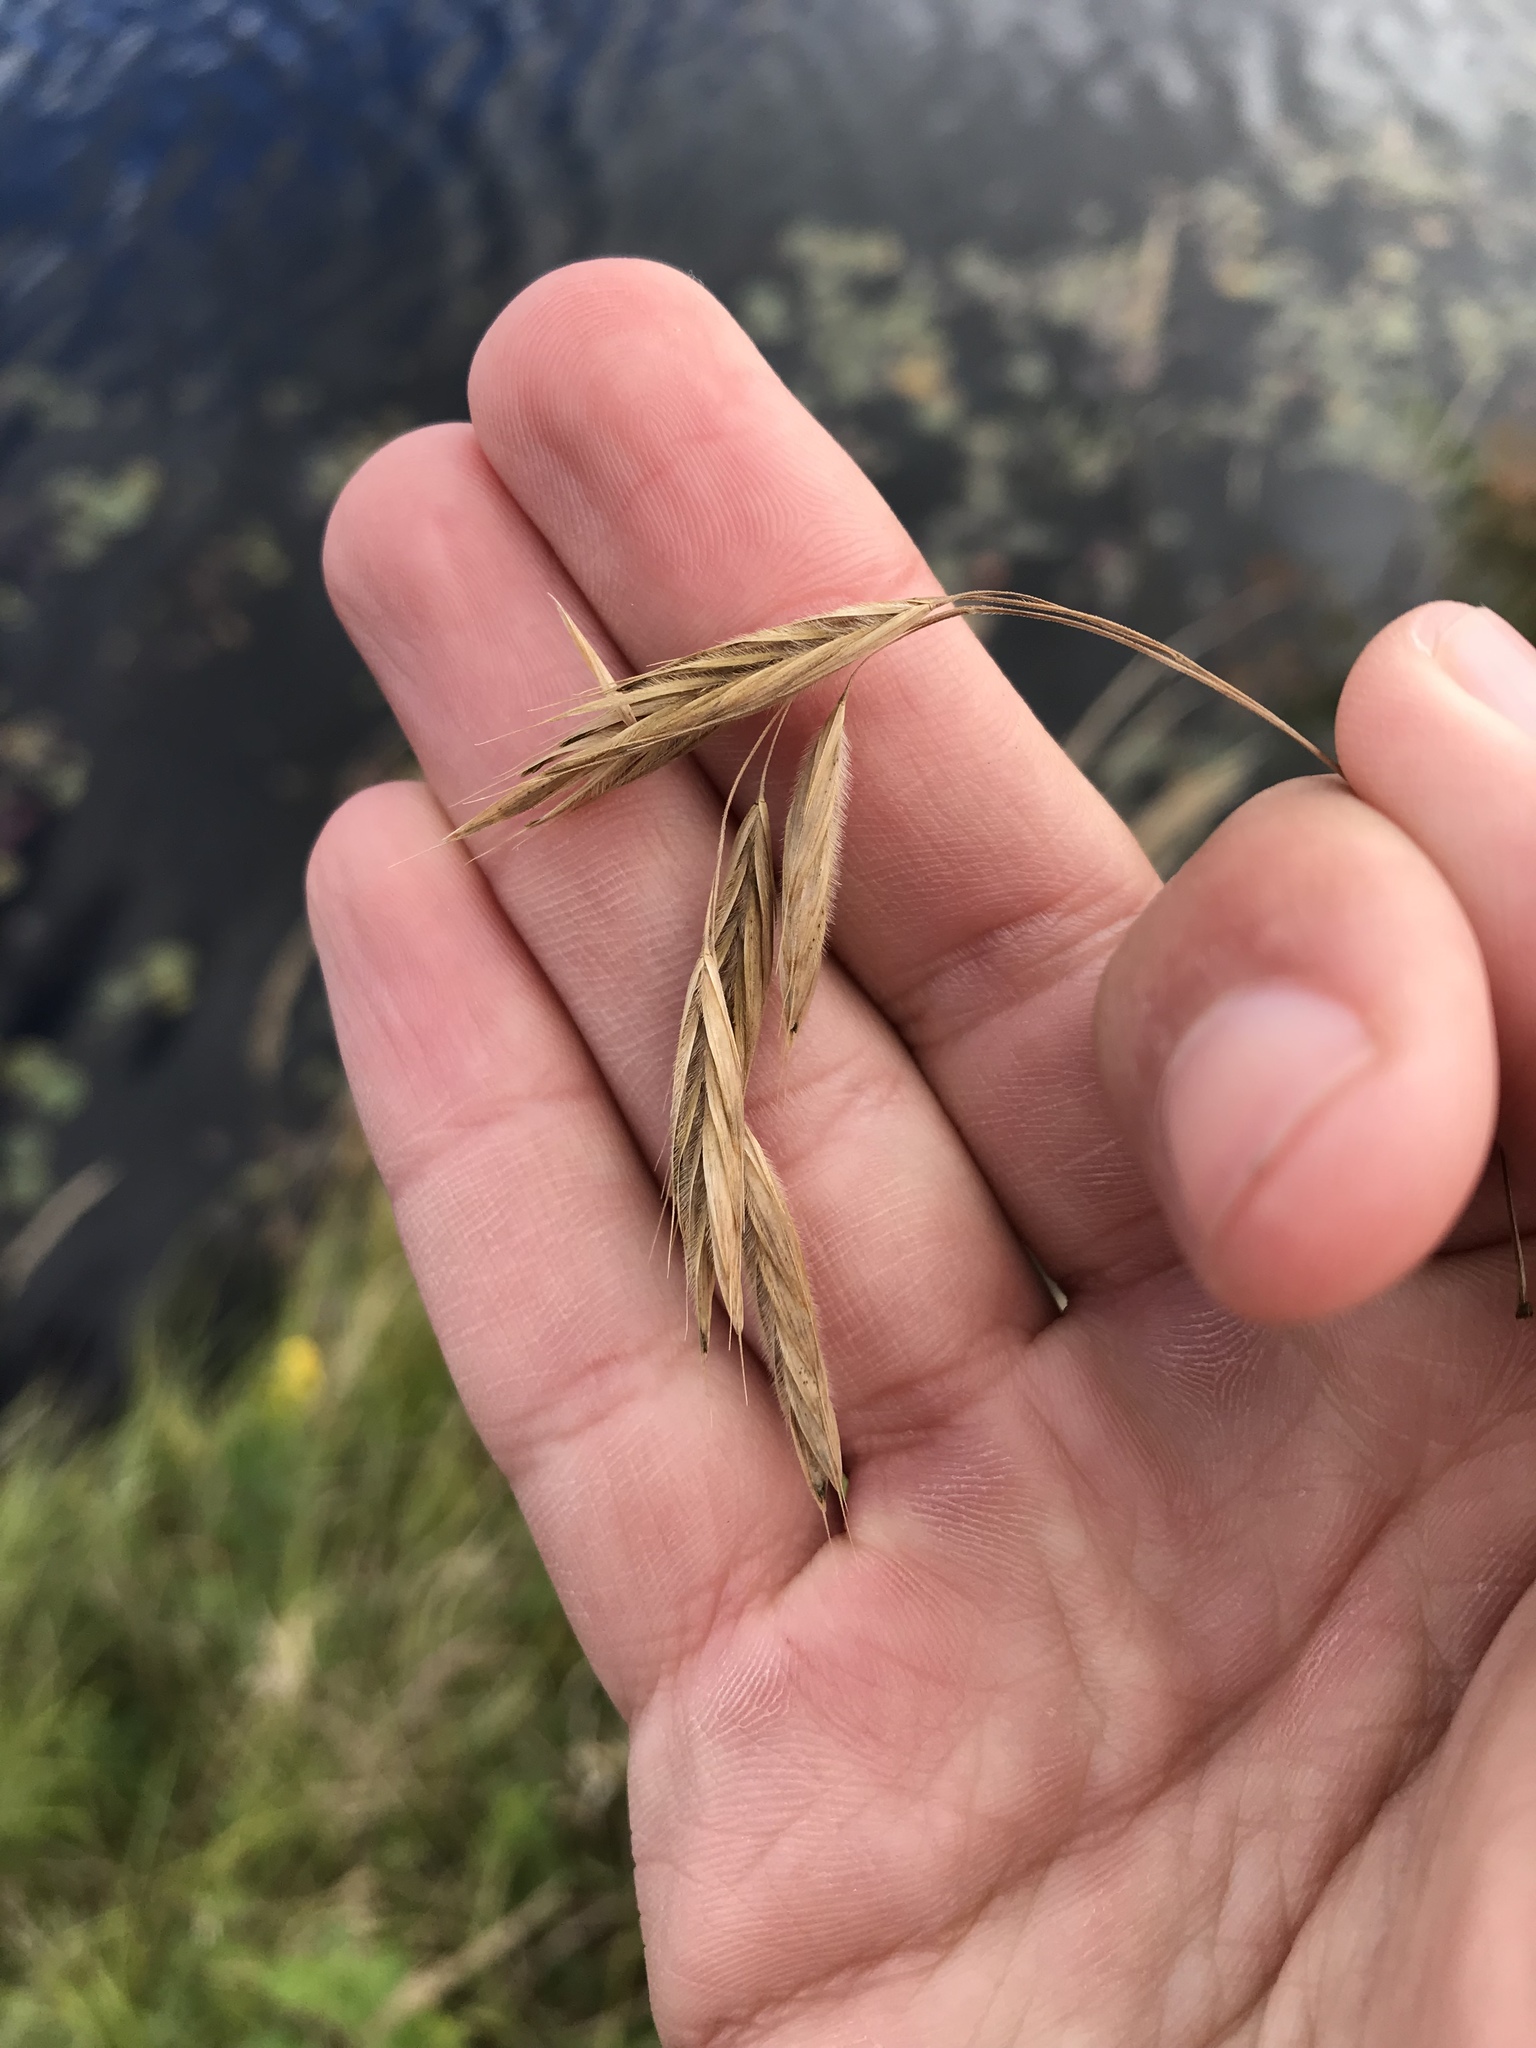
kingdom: Plantae
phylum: Tracheophyta
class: Liliopsida
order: Poales
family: Poaceae
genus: Bromus
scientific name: Bromus ciliatus
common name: Fringe brome
